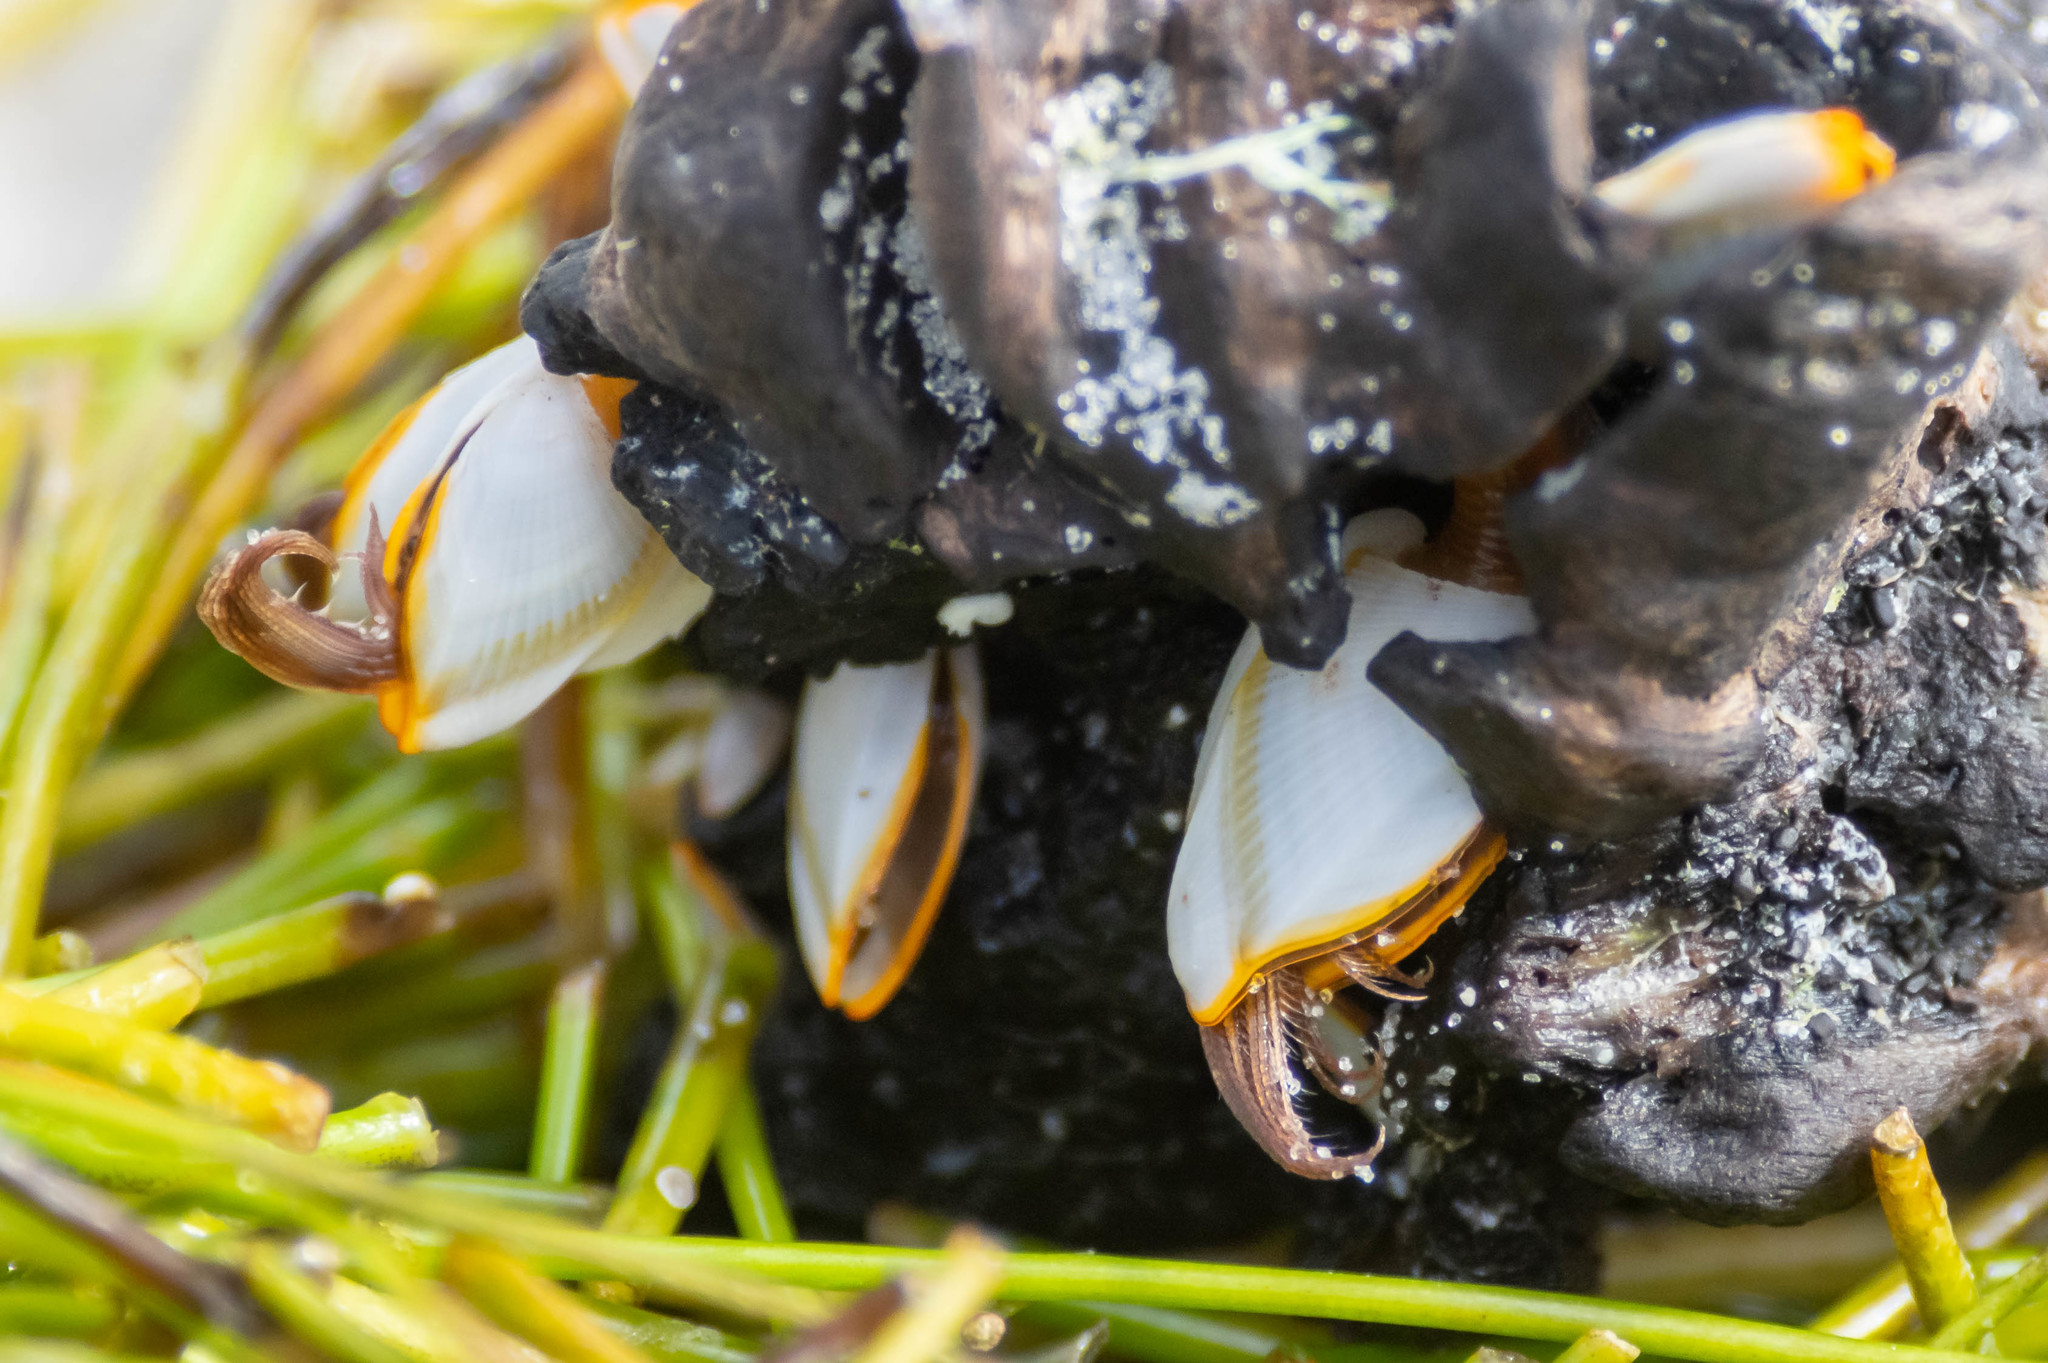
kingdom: Animalia
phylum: Arthropoda
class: Maxillopoda
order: Pedunculata
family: Lepadidae
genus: Lepas
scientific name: Lepas anserifera
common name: Goose barnacle
